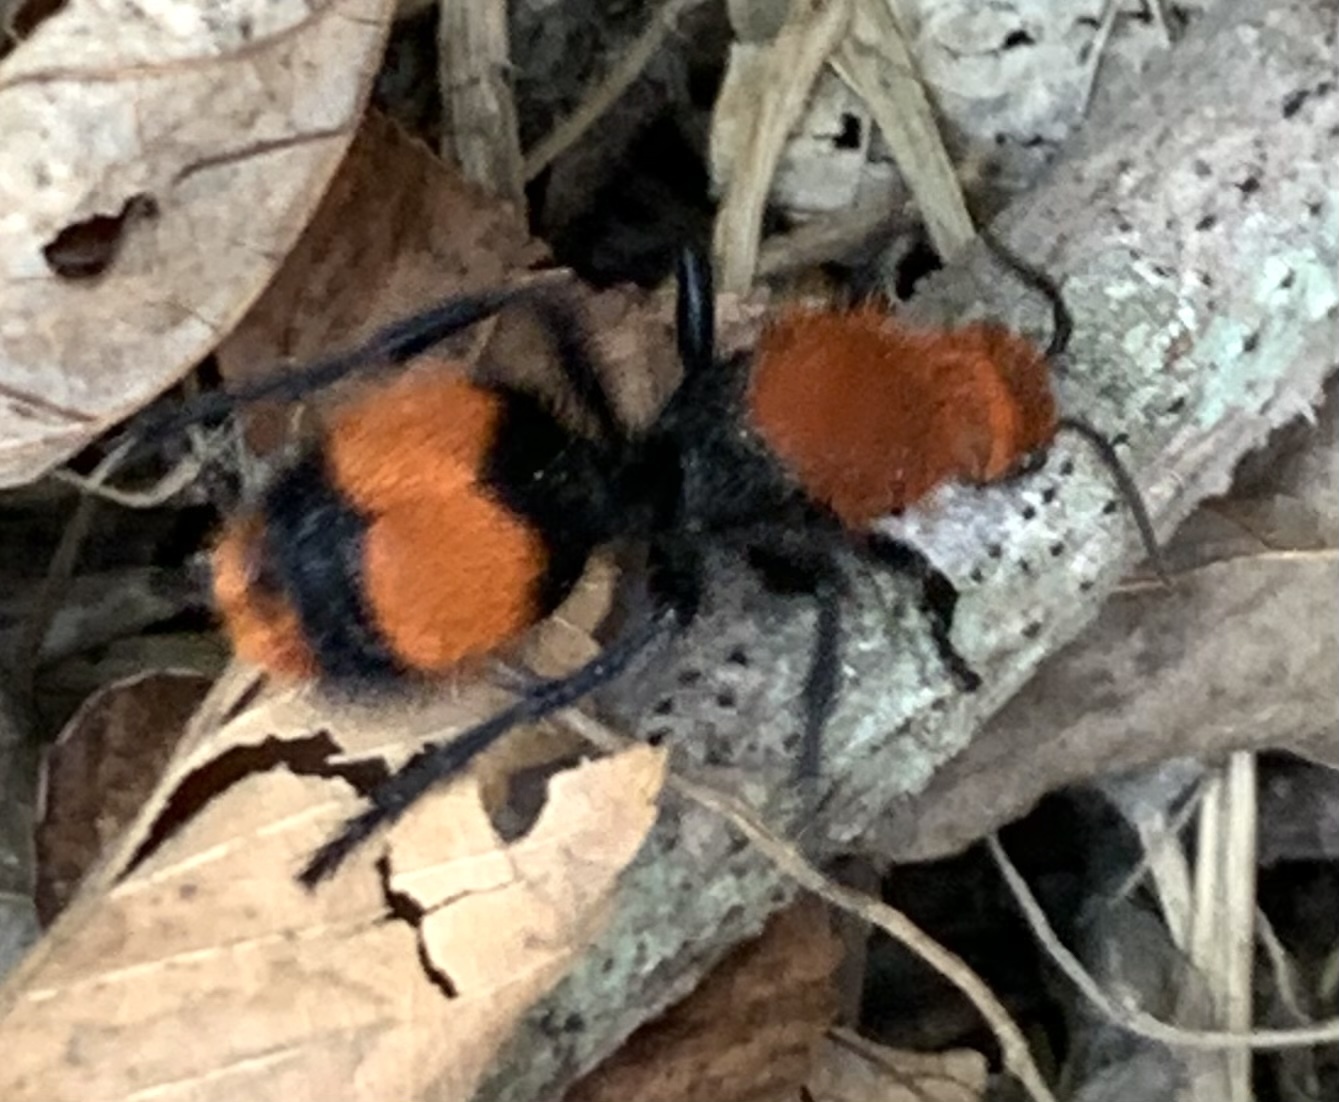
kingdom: Animalia
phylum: Arthropoda
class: Insecta
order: Hymenoptera
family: Mutillidae
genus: Dasymutilla
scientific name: Dasymutilla occidentalis
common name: Common eastern velvet ant
